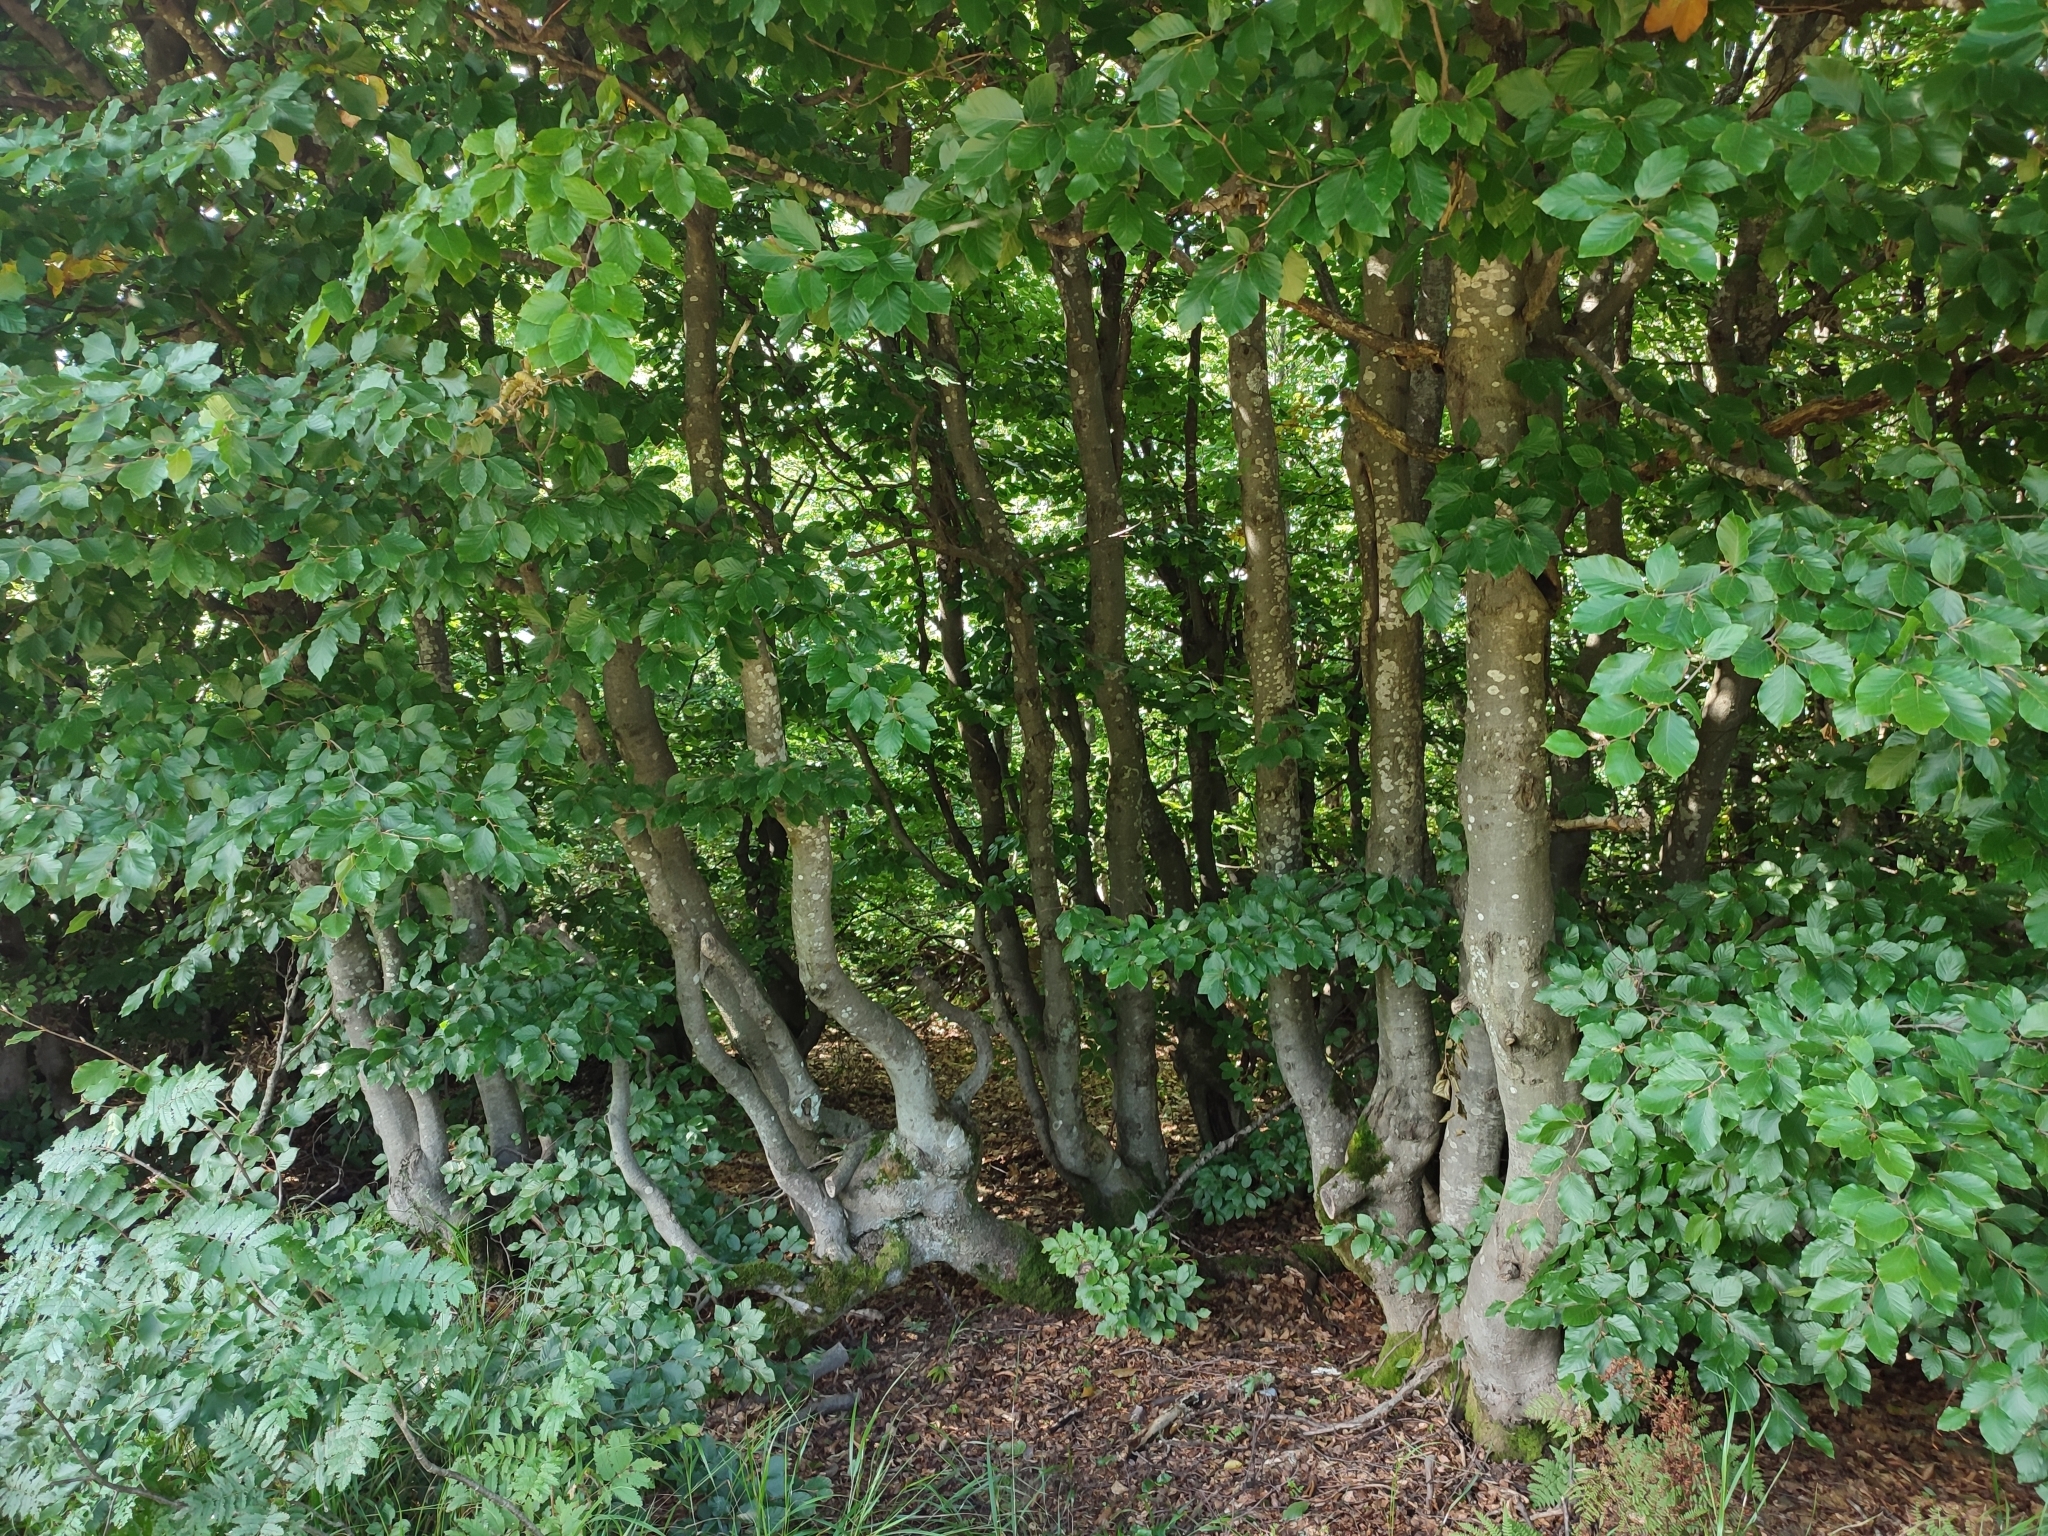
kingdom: Plantae
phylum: Tracheophyta
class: Magnoliopsida
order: Fagales
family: Fagaceae
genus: Fagus
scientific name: Fagus sylvatica
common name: Beech
